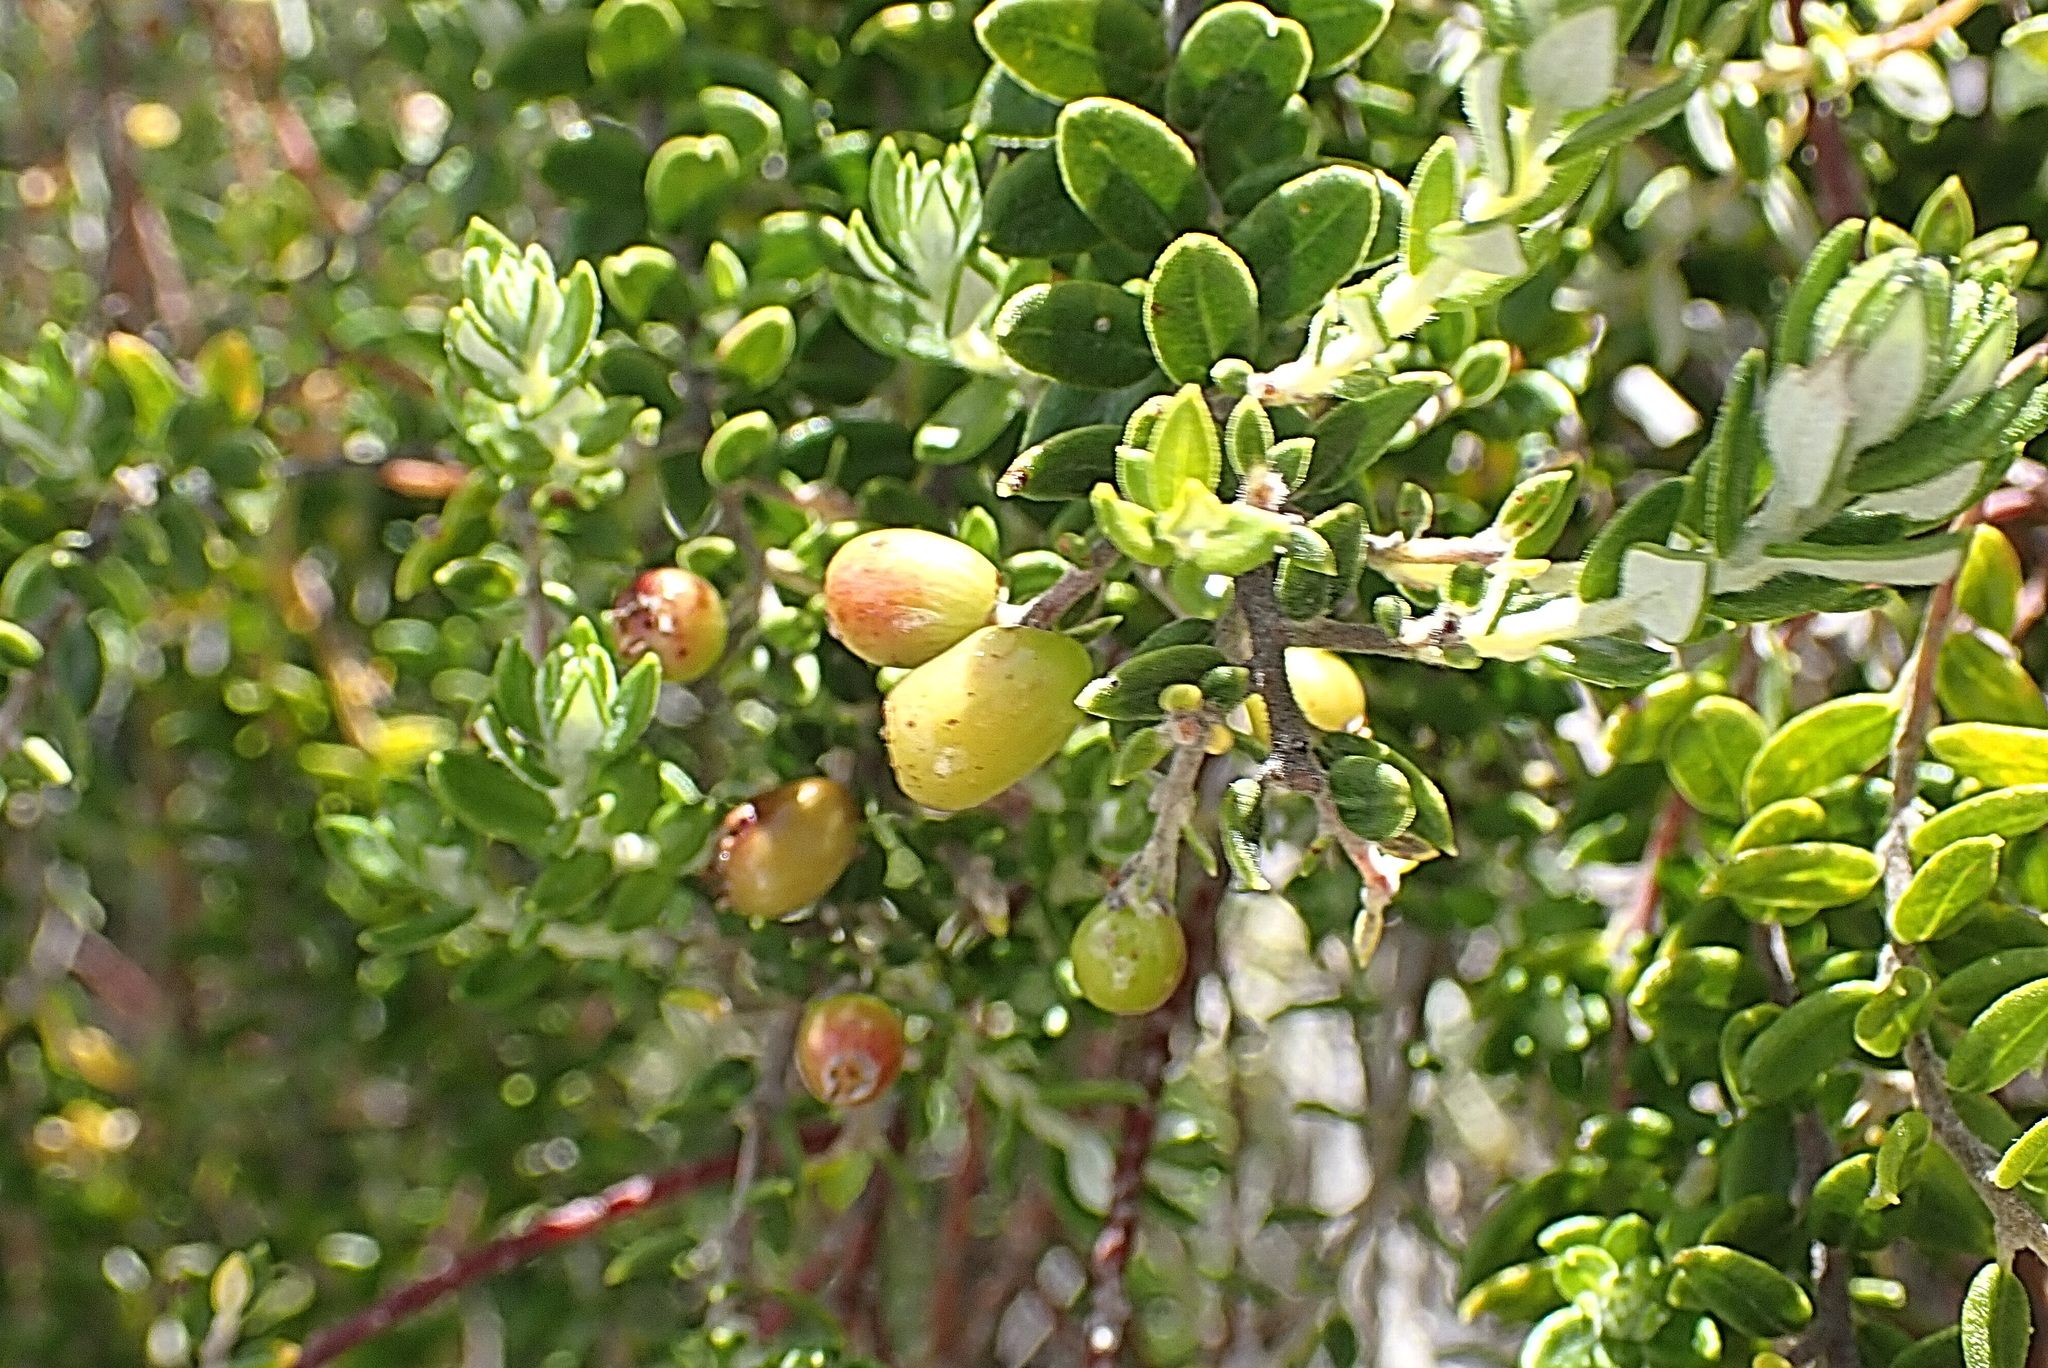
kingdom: Plantae
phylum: Tracheophyta
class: Magnoliopsida
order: Rosales
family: Rhamnaceae
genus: Phylica
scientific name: Phylica paniculata
